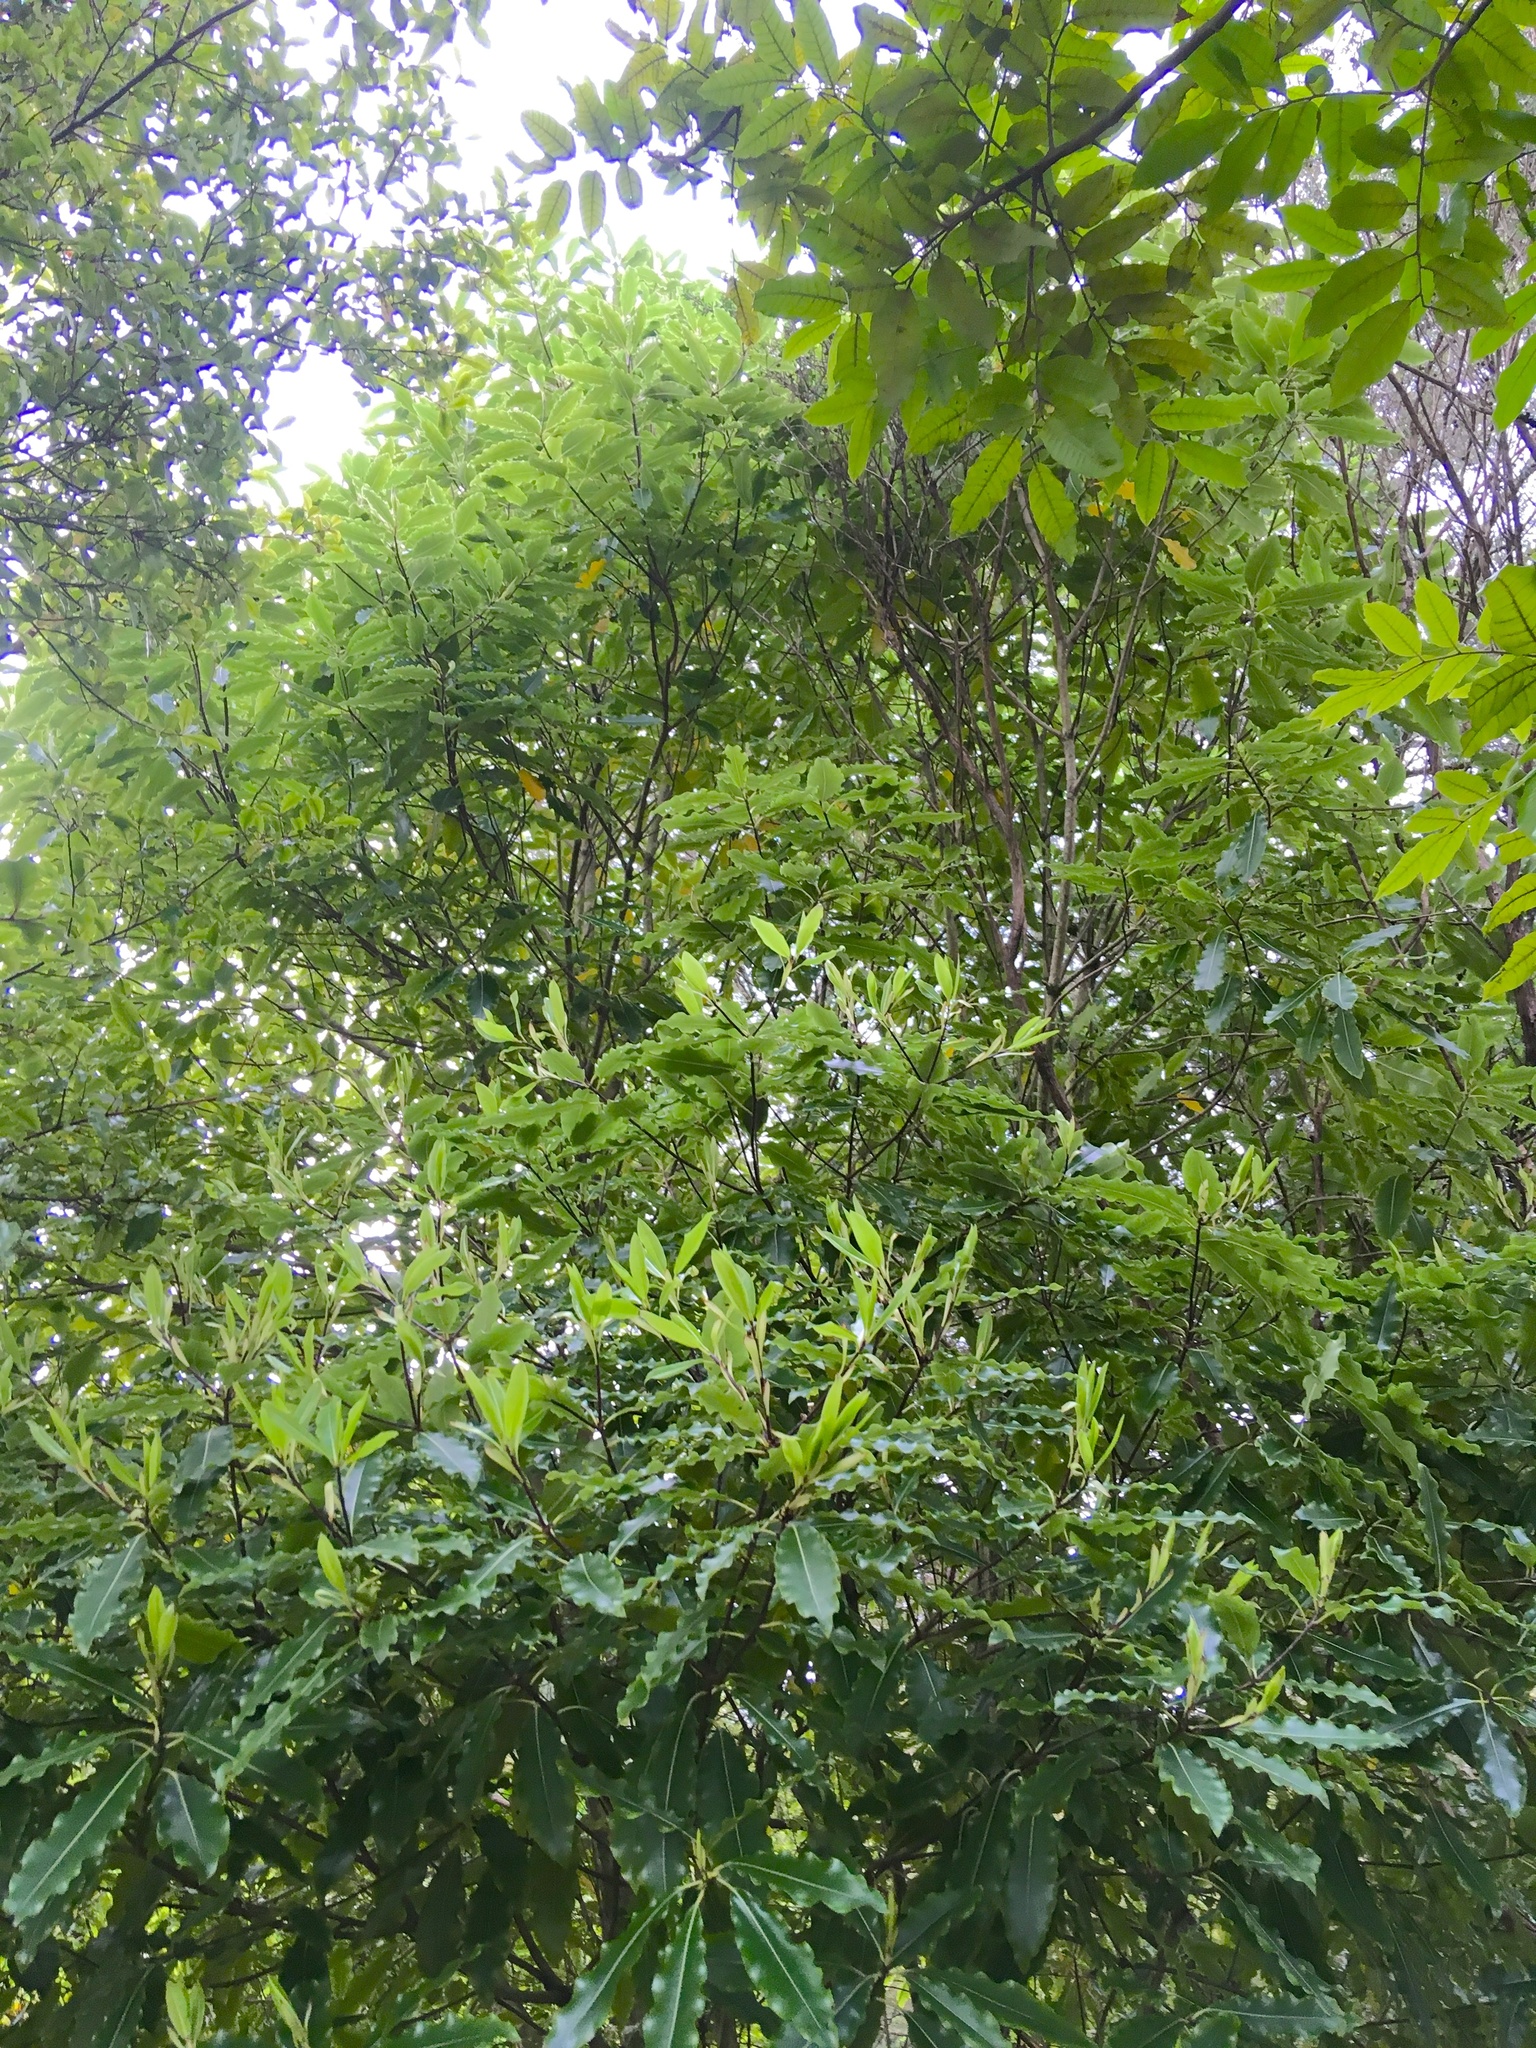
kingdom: Plantae
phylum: Tracheophyta
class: Magnoliopsida
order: Apiales
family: Pittosporaceae
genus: Pittosporum
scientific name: Pittosporum eugenioides
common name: Lemonwood
